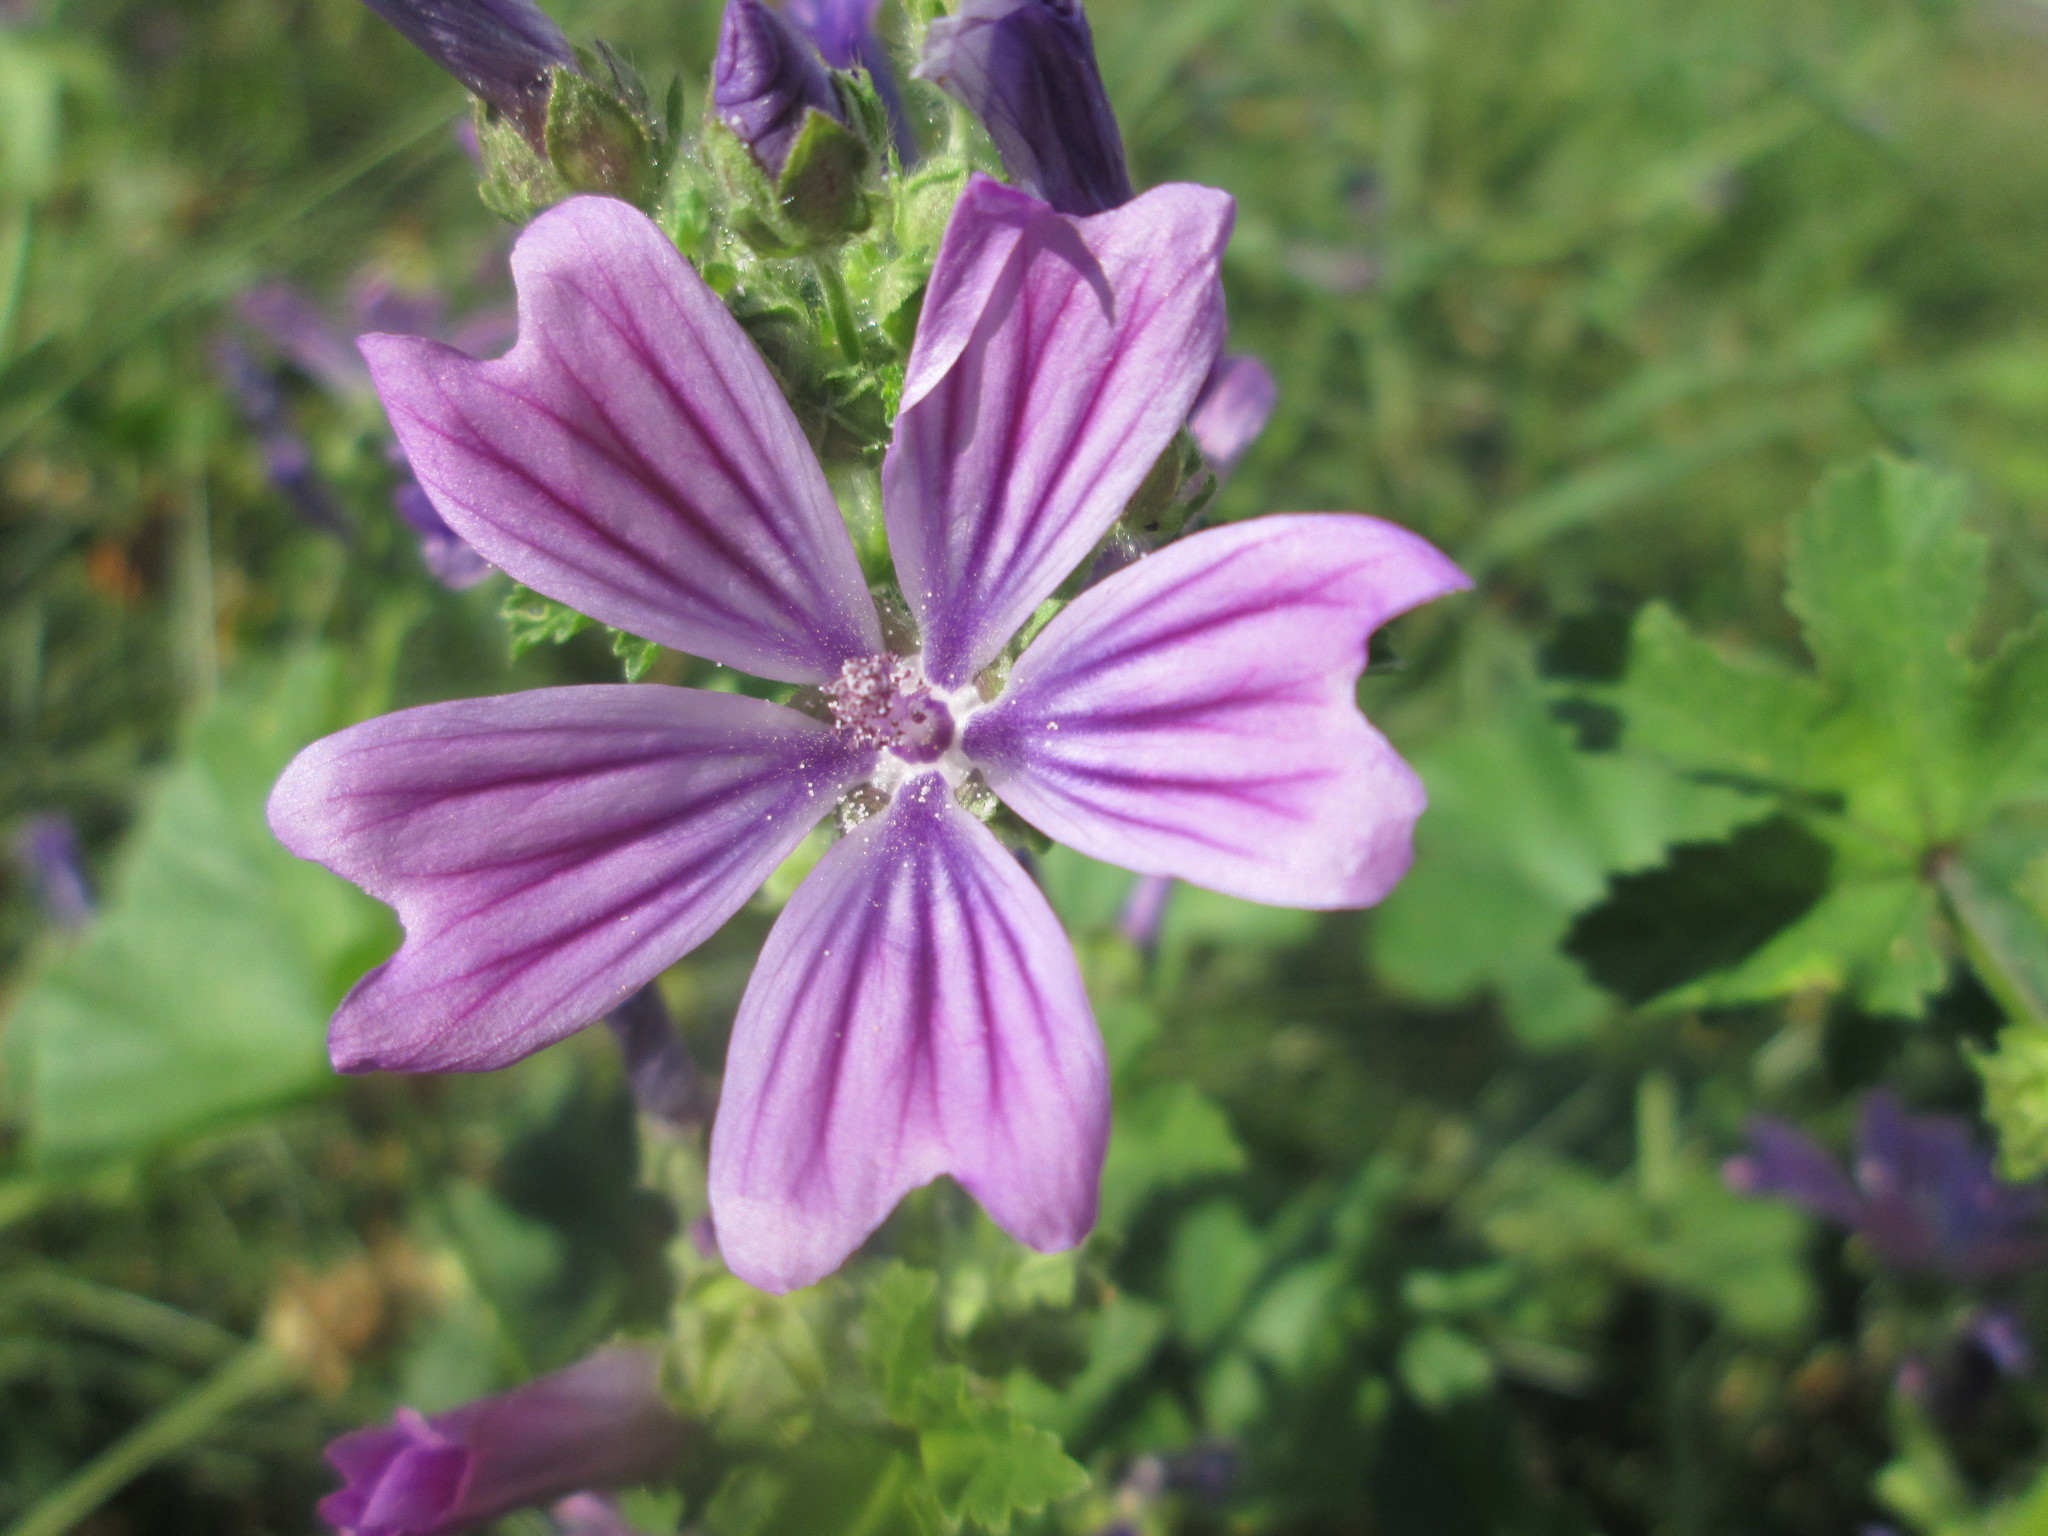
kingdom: Plantae
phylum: Tracheophyta
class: Magnoliopsida
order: Malvales
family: Malvaceae
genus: Malva
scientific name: Malva sylvestris
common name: Common mallow
